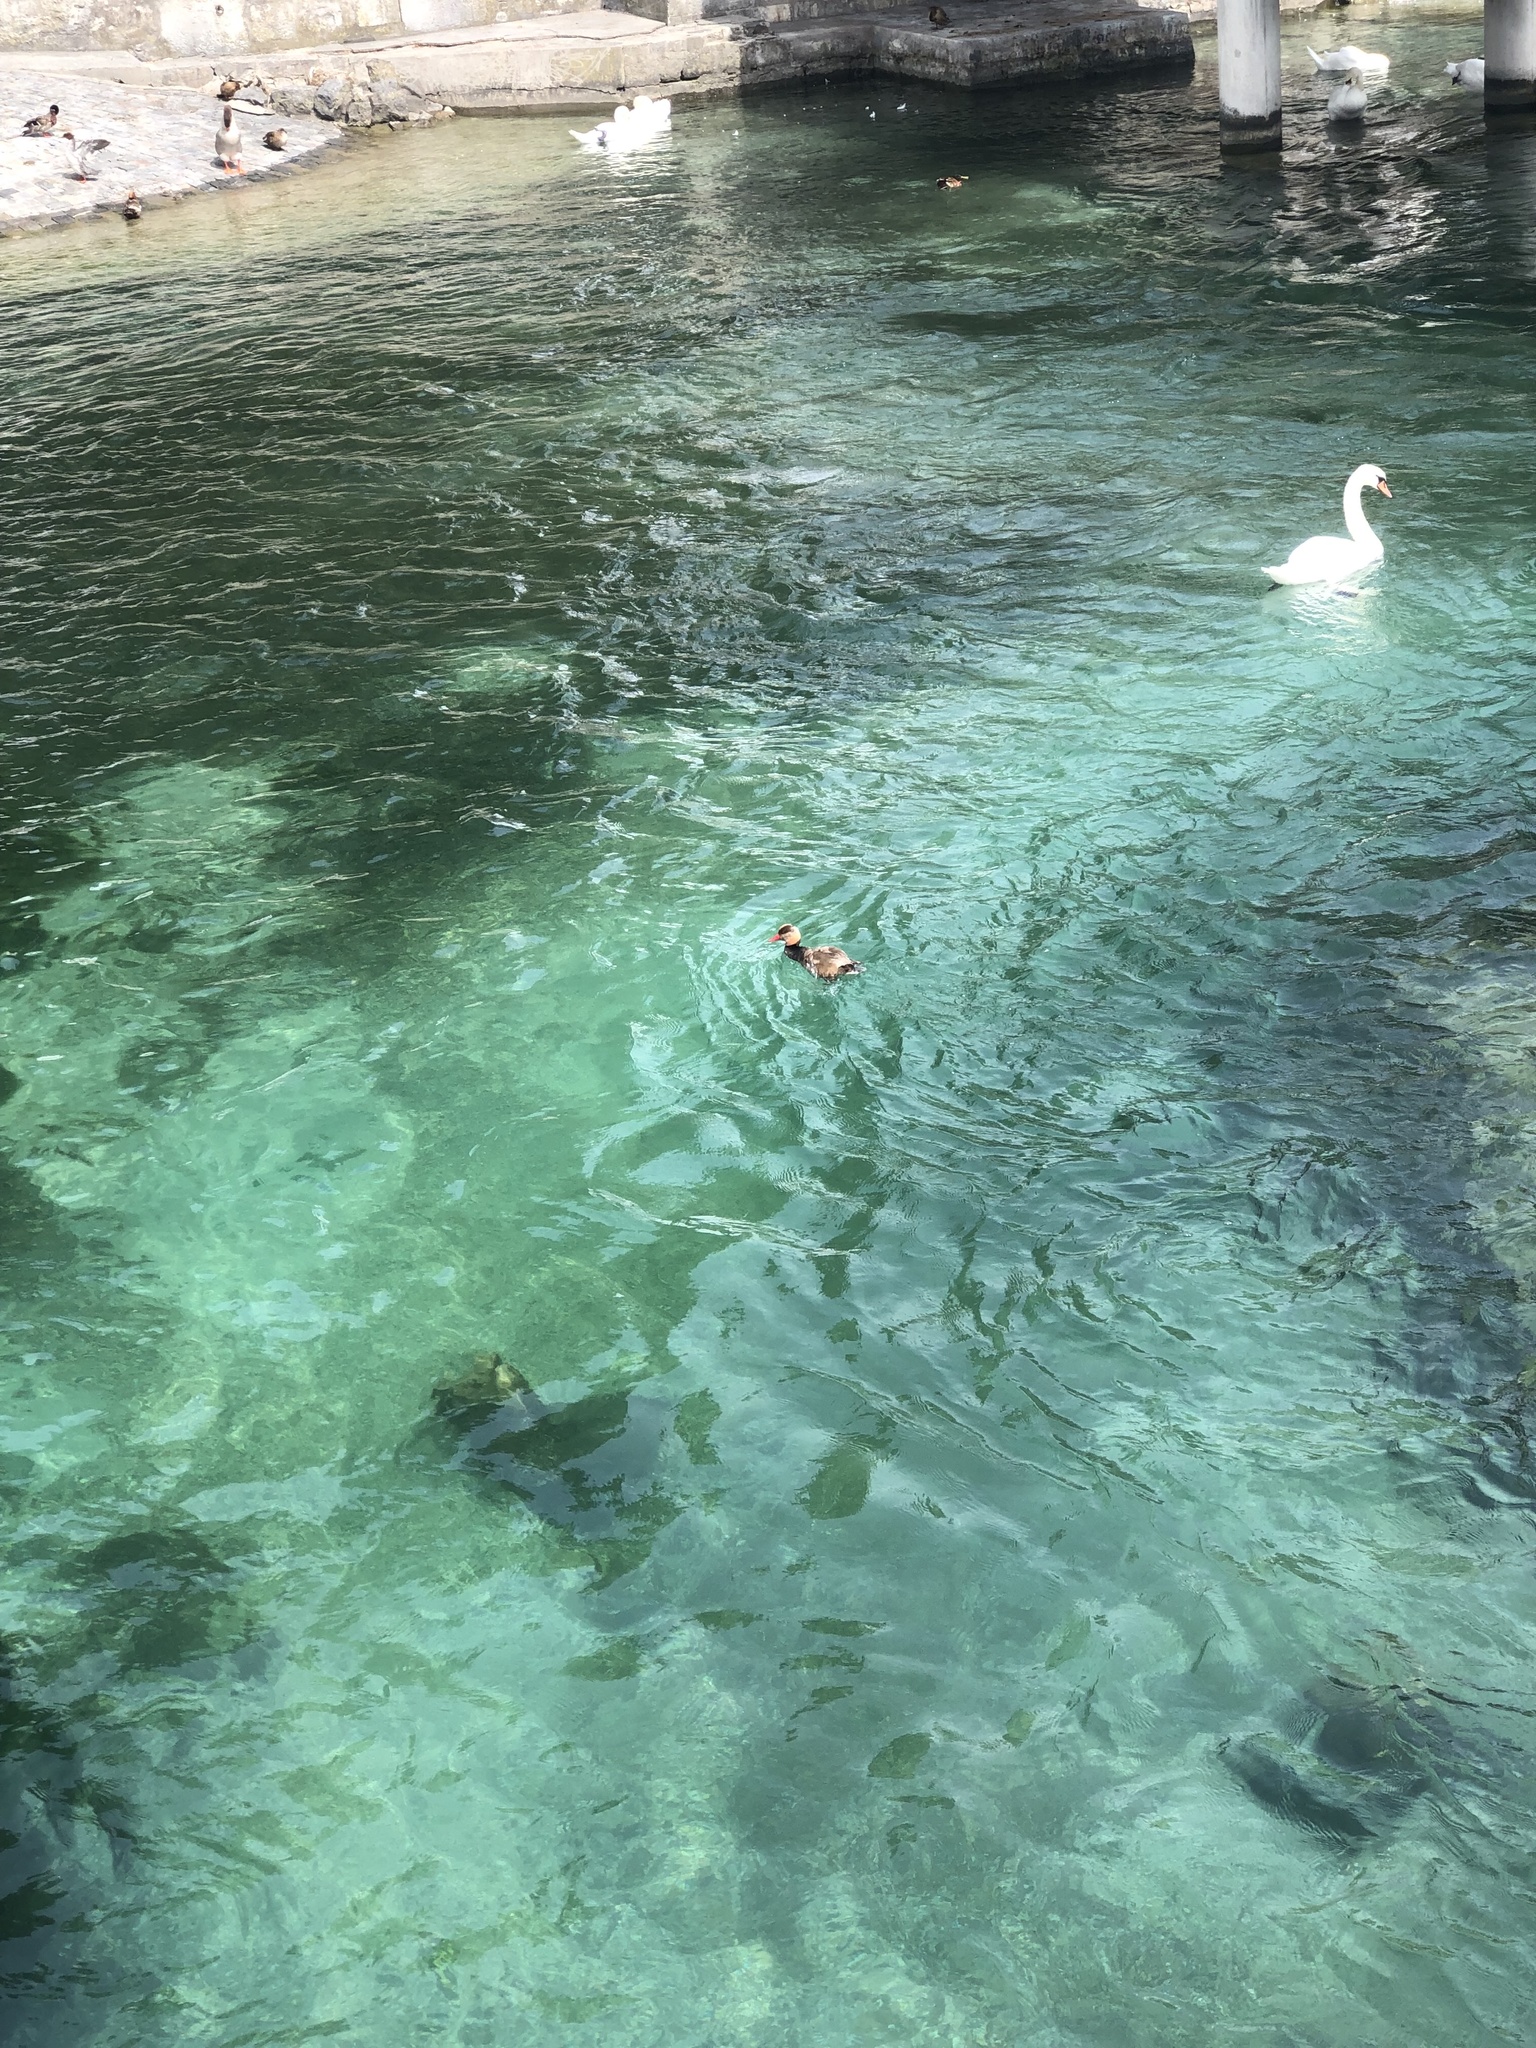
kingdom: Animalia
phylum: Chordata
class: Aves
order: Anseriformes
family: Anatidae
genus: Cygnus
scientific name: Cygnus olor
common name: Mute swan
